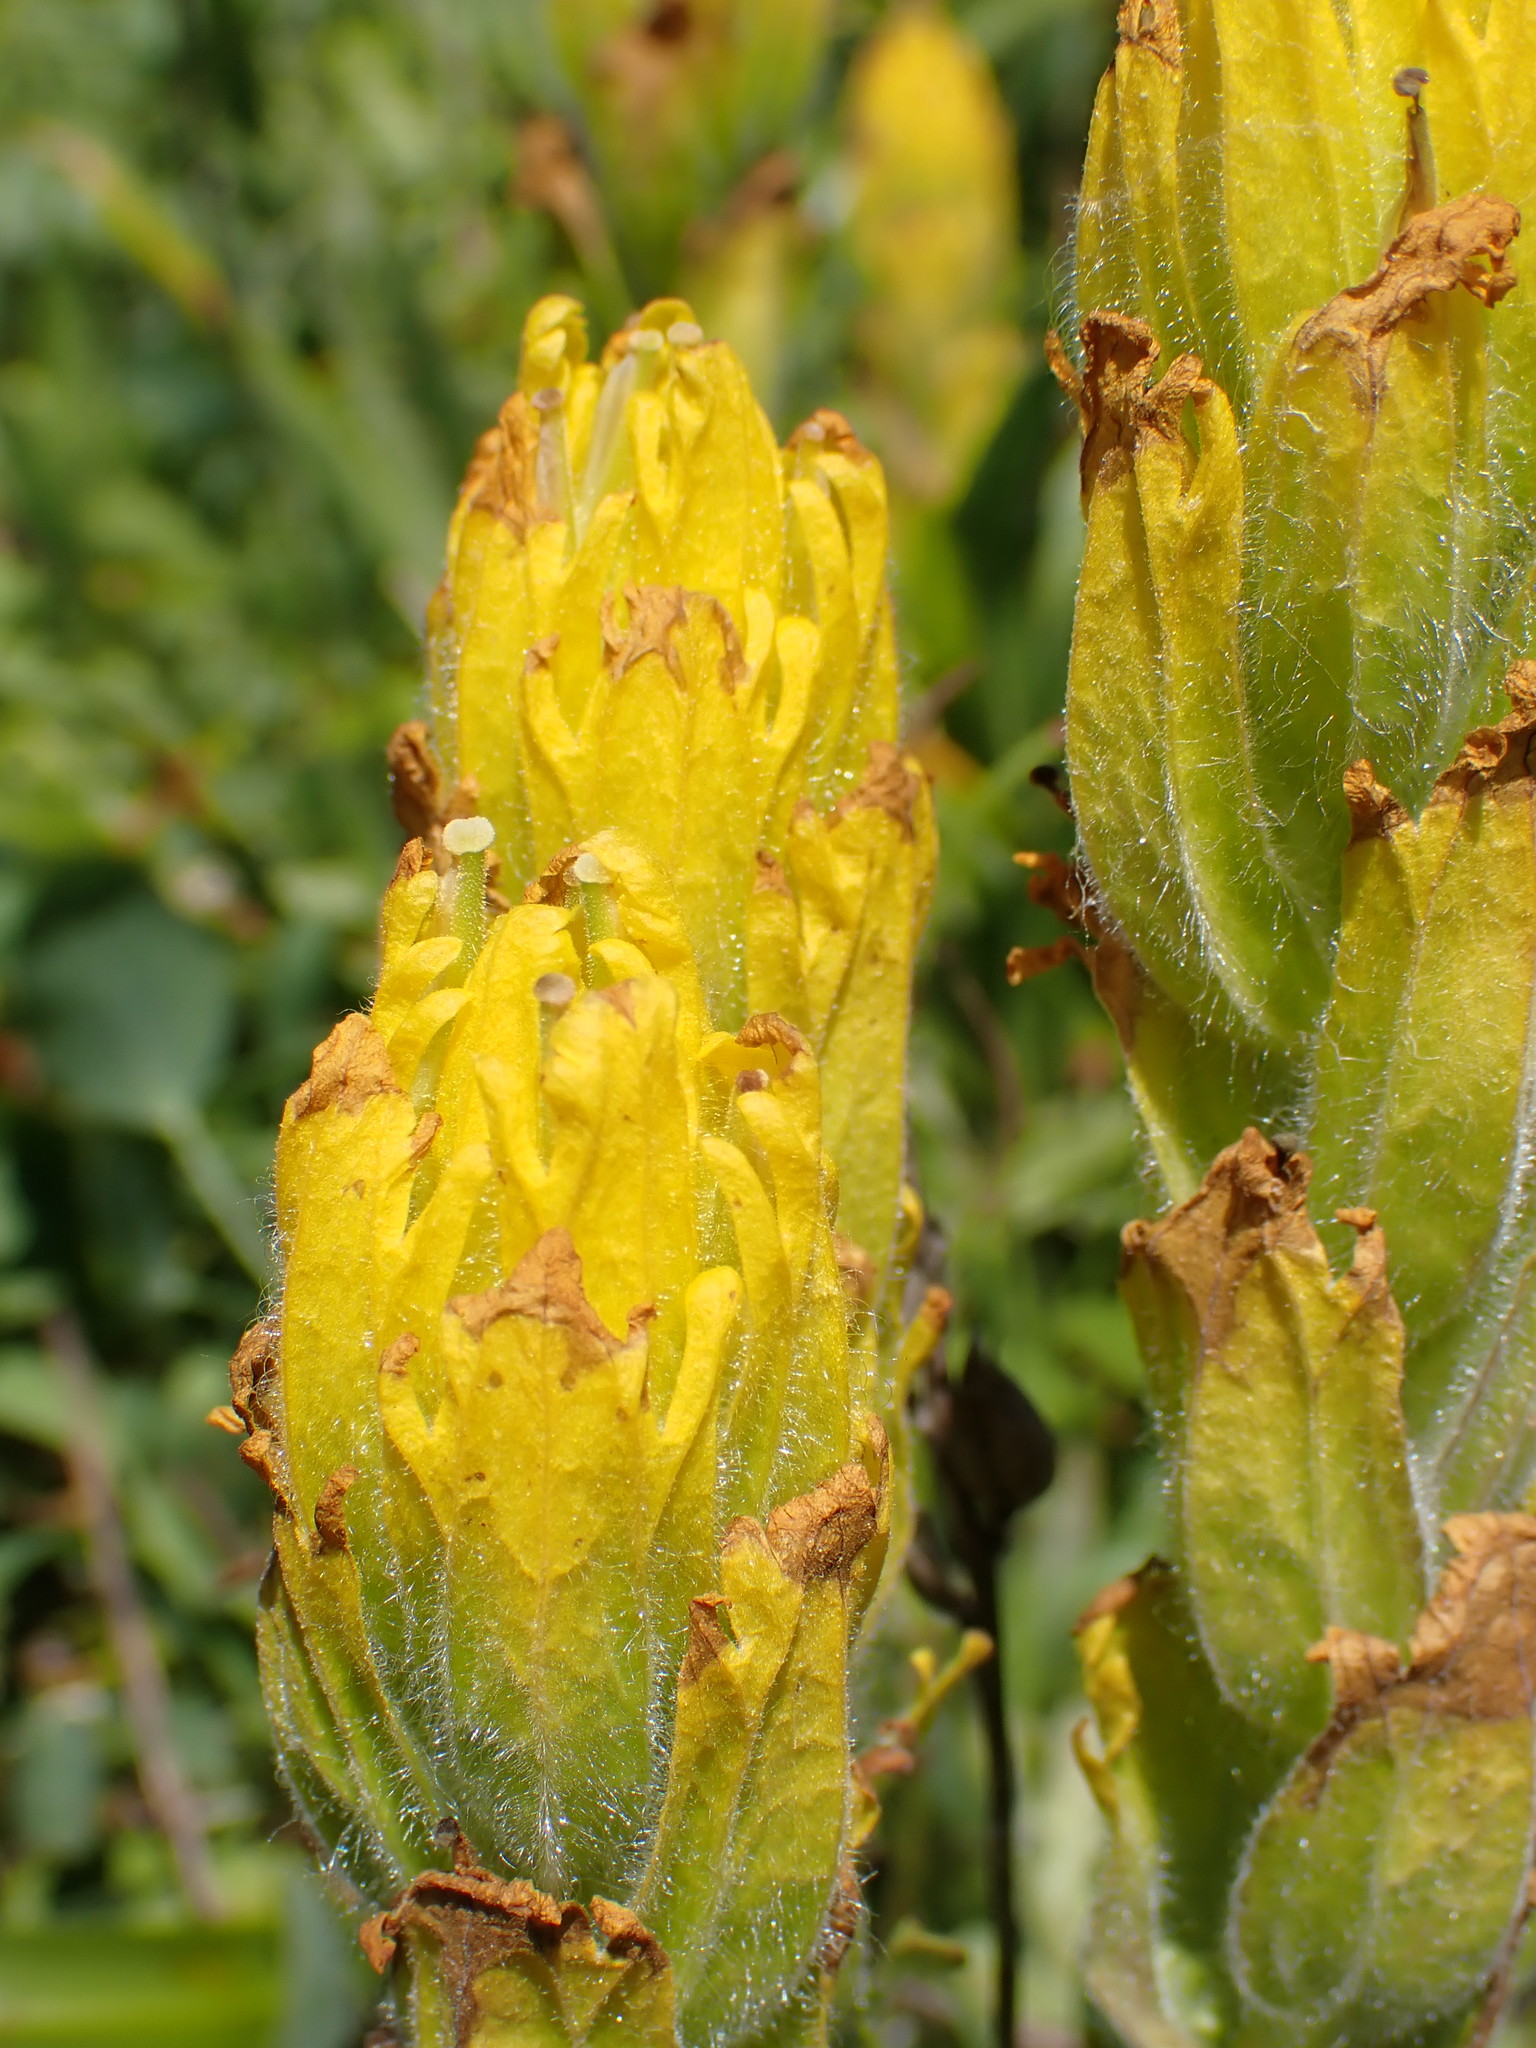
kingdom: Plantae
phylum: Tracheophyta
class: Magnoliopsida
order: Lamiales
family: Orobanchaceae
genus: Castilleja
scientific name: Castilleja levisecta
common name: Golden paintbrush
